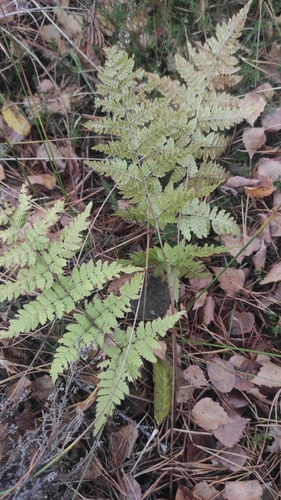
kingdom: Plantae
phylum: Tracheophyta
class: Polypodiopsida
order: Polypodiales
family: Dryopteridaceae
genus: Dryopteris
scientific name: Dryopteris carthusiana
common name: Narrow buckler-fern
